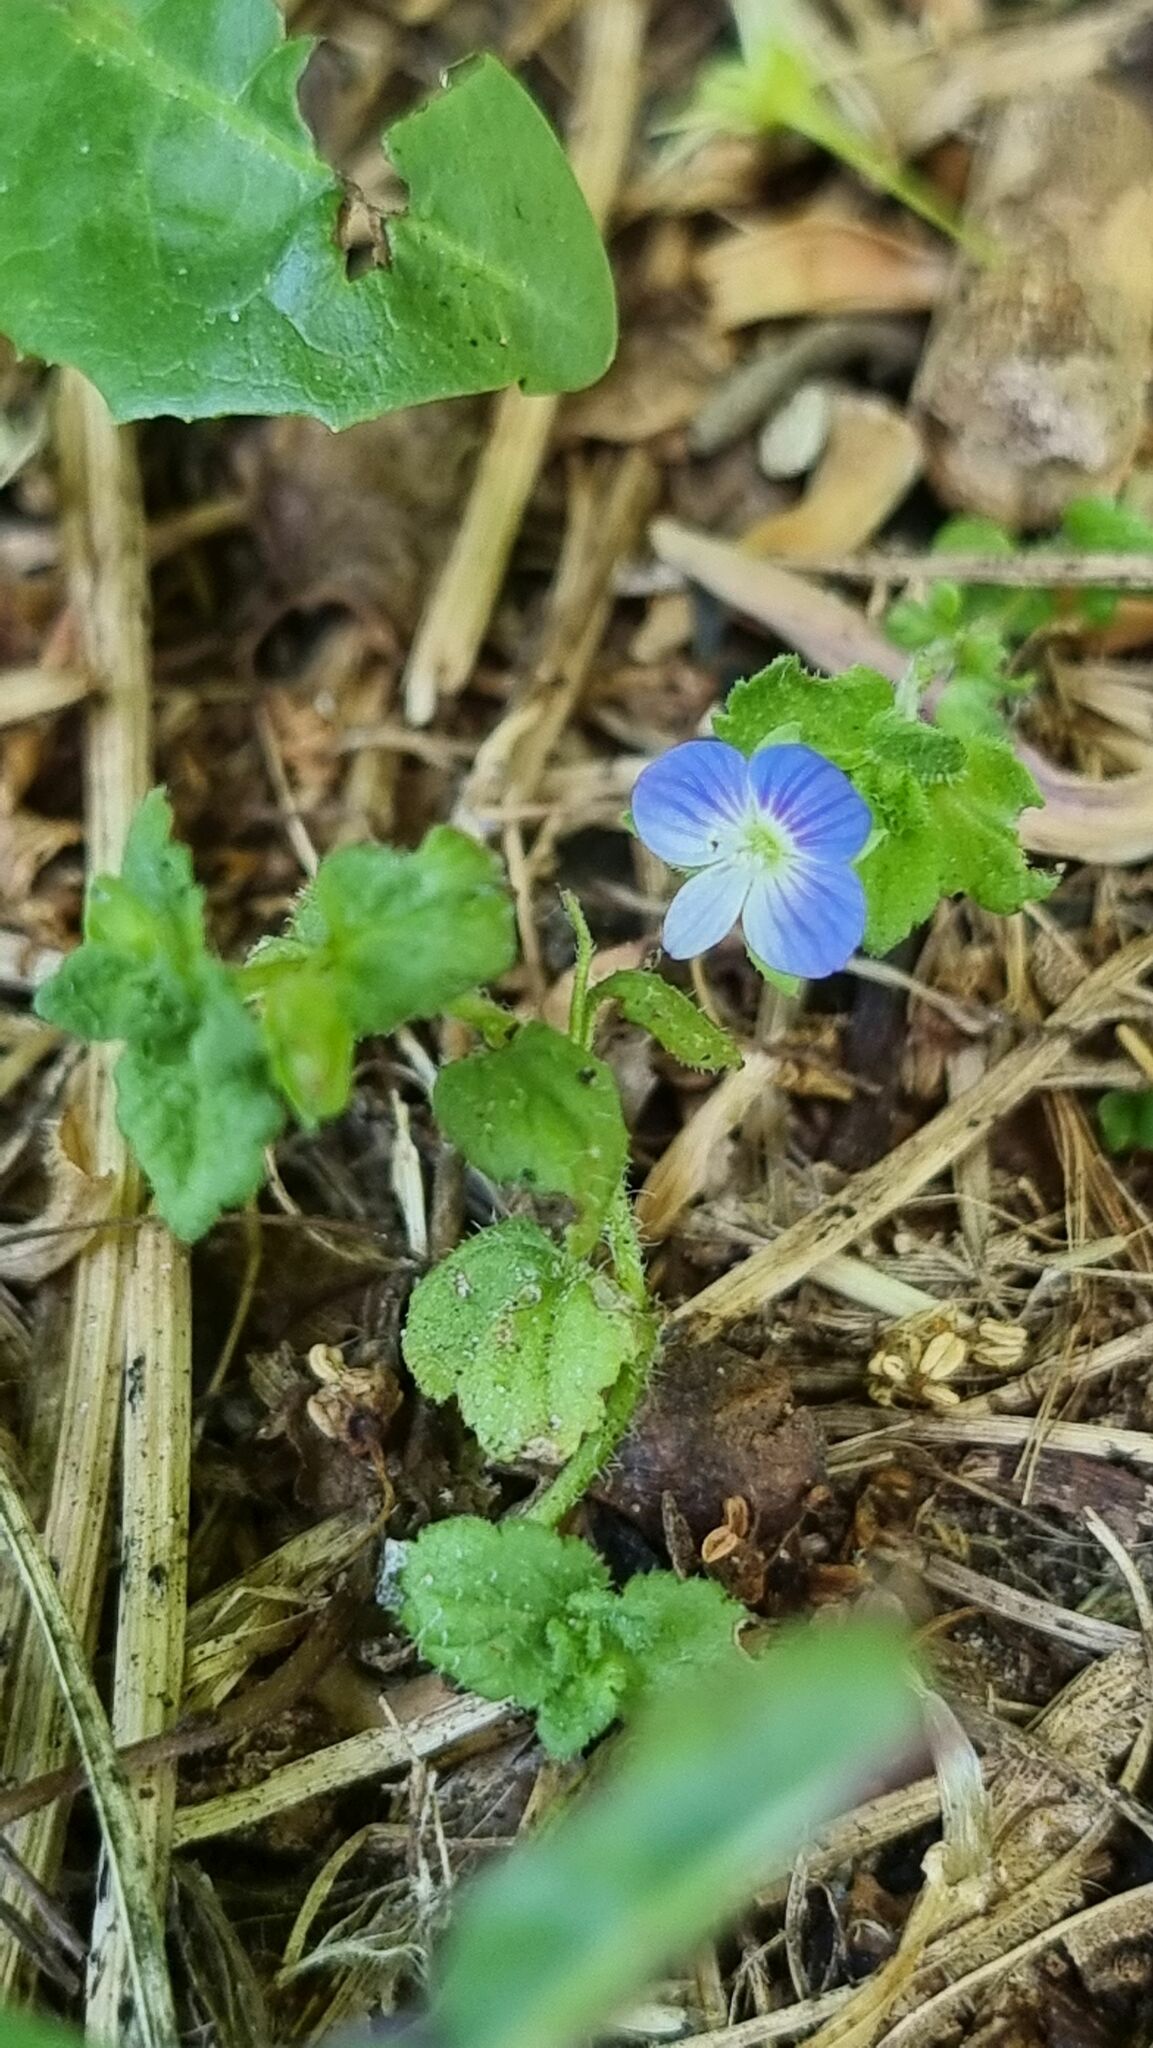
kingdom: Plantae
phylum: Tracheophyta
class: Magnoliopsida
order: Lamiales
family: Plantaginaceae
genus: Veronica
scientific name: Veronica persica
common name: Common field-speedwell
